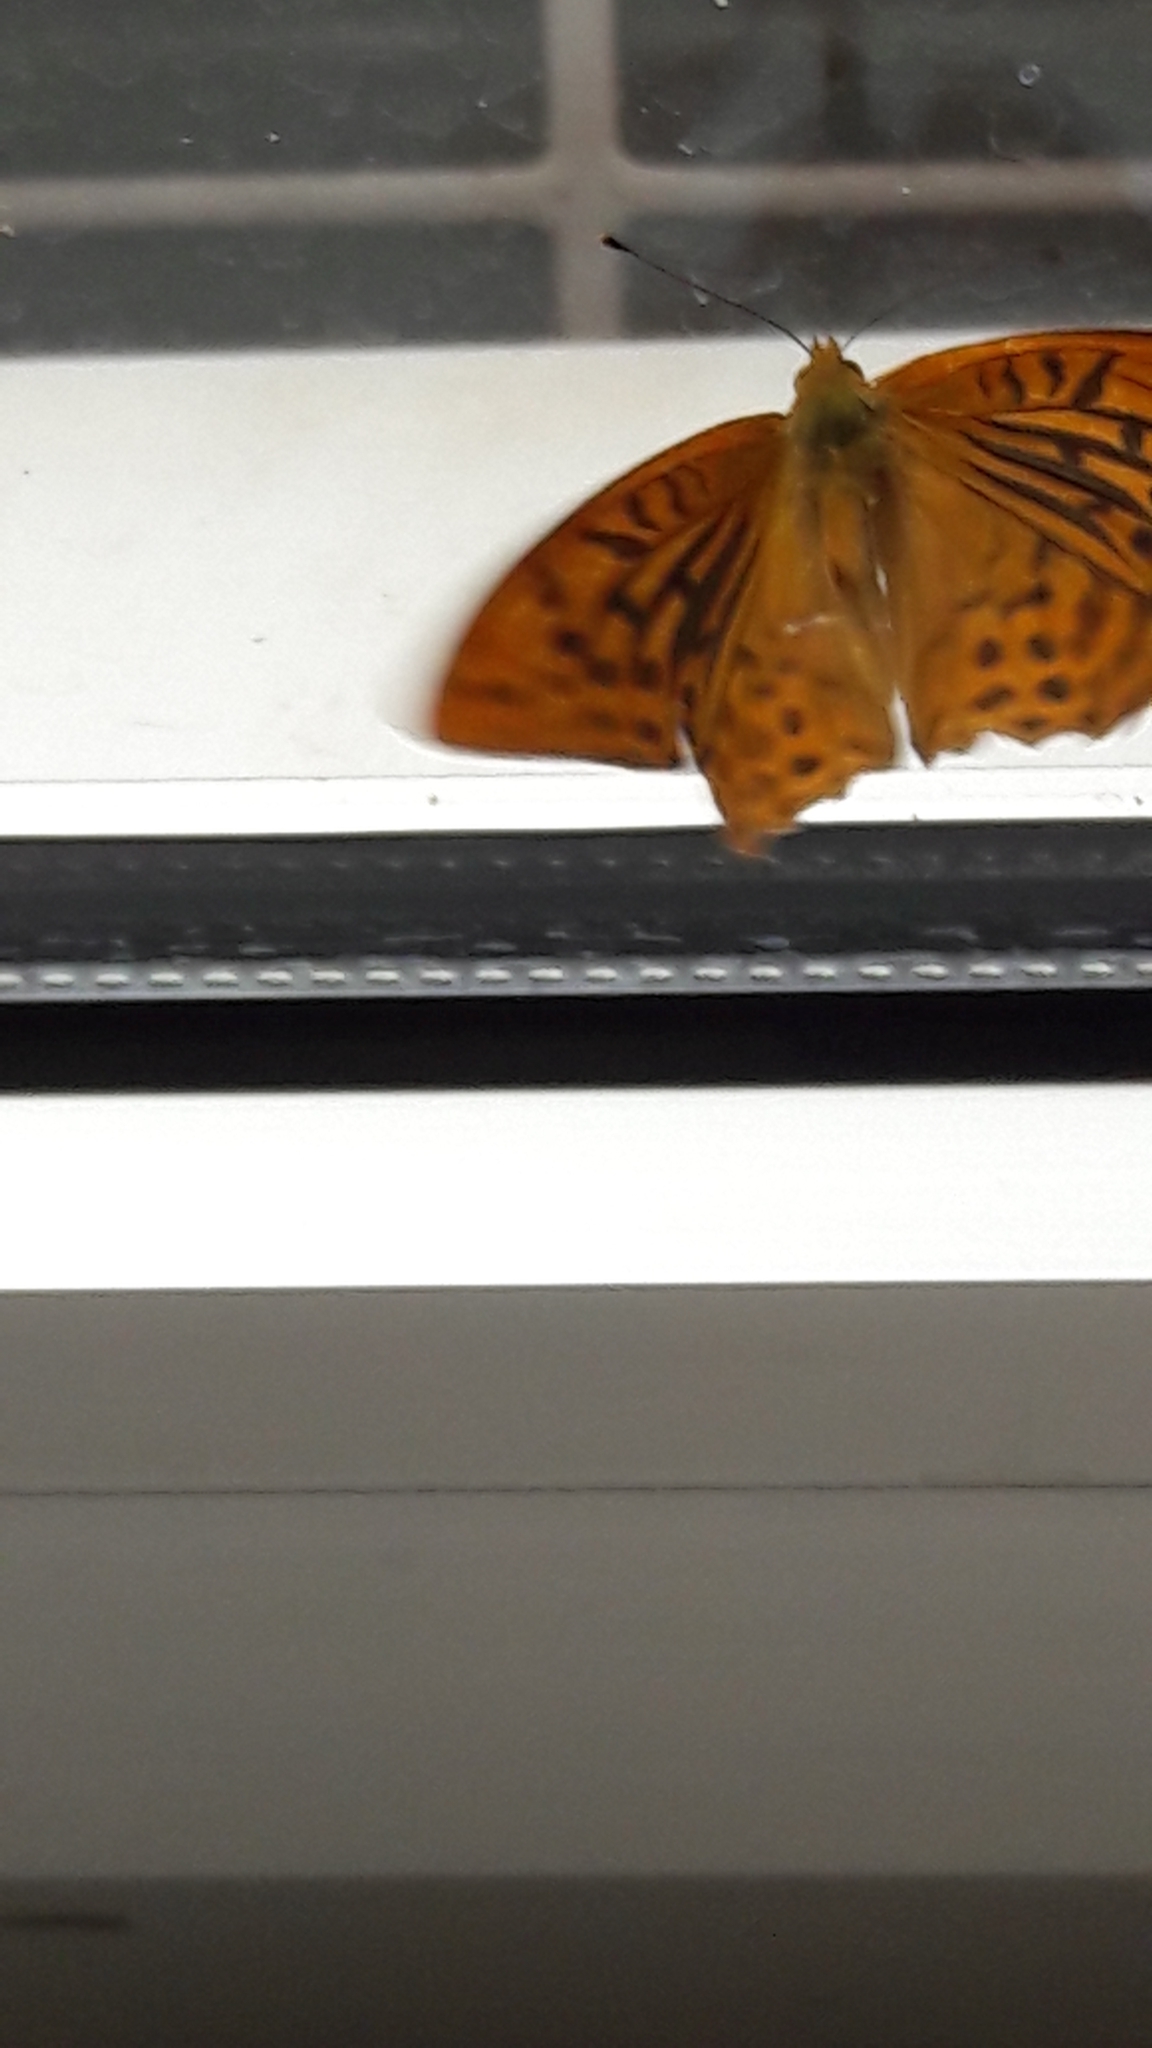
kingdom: Animalia
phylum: Arthropoda
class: Insecta
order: Lepidoptera
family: Nymphalidae
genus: Argynnis
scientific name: Argynnis paphia
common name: Silver-washed fritillary
